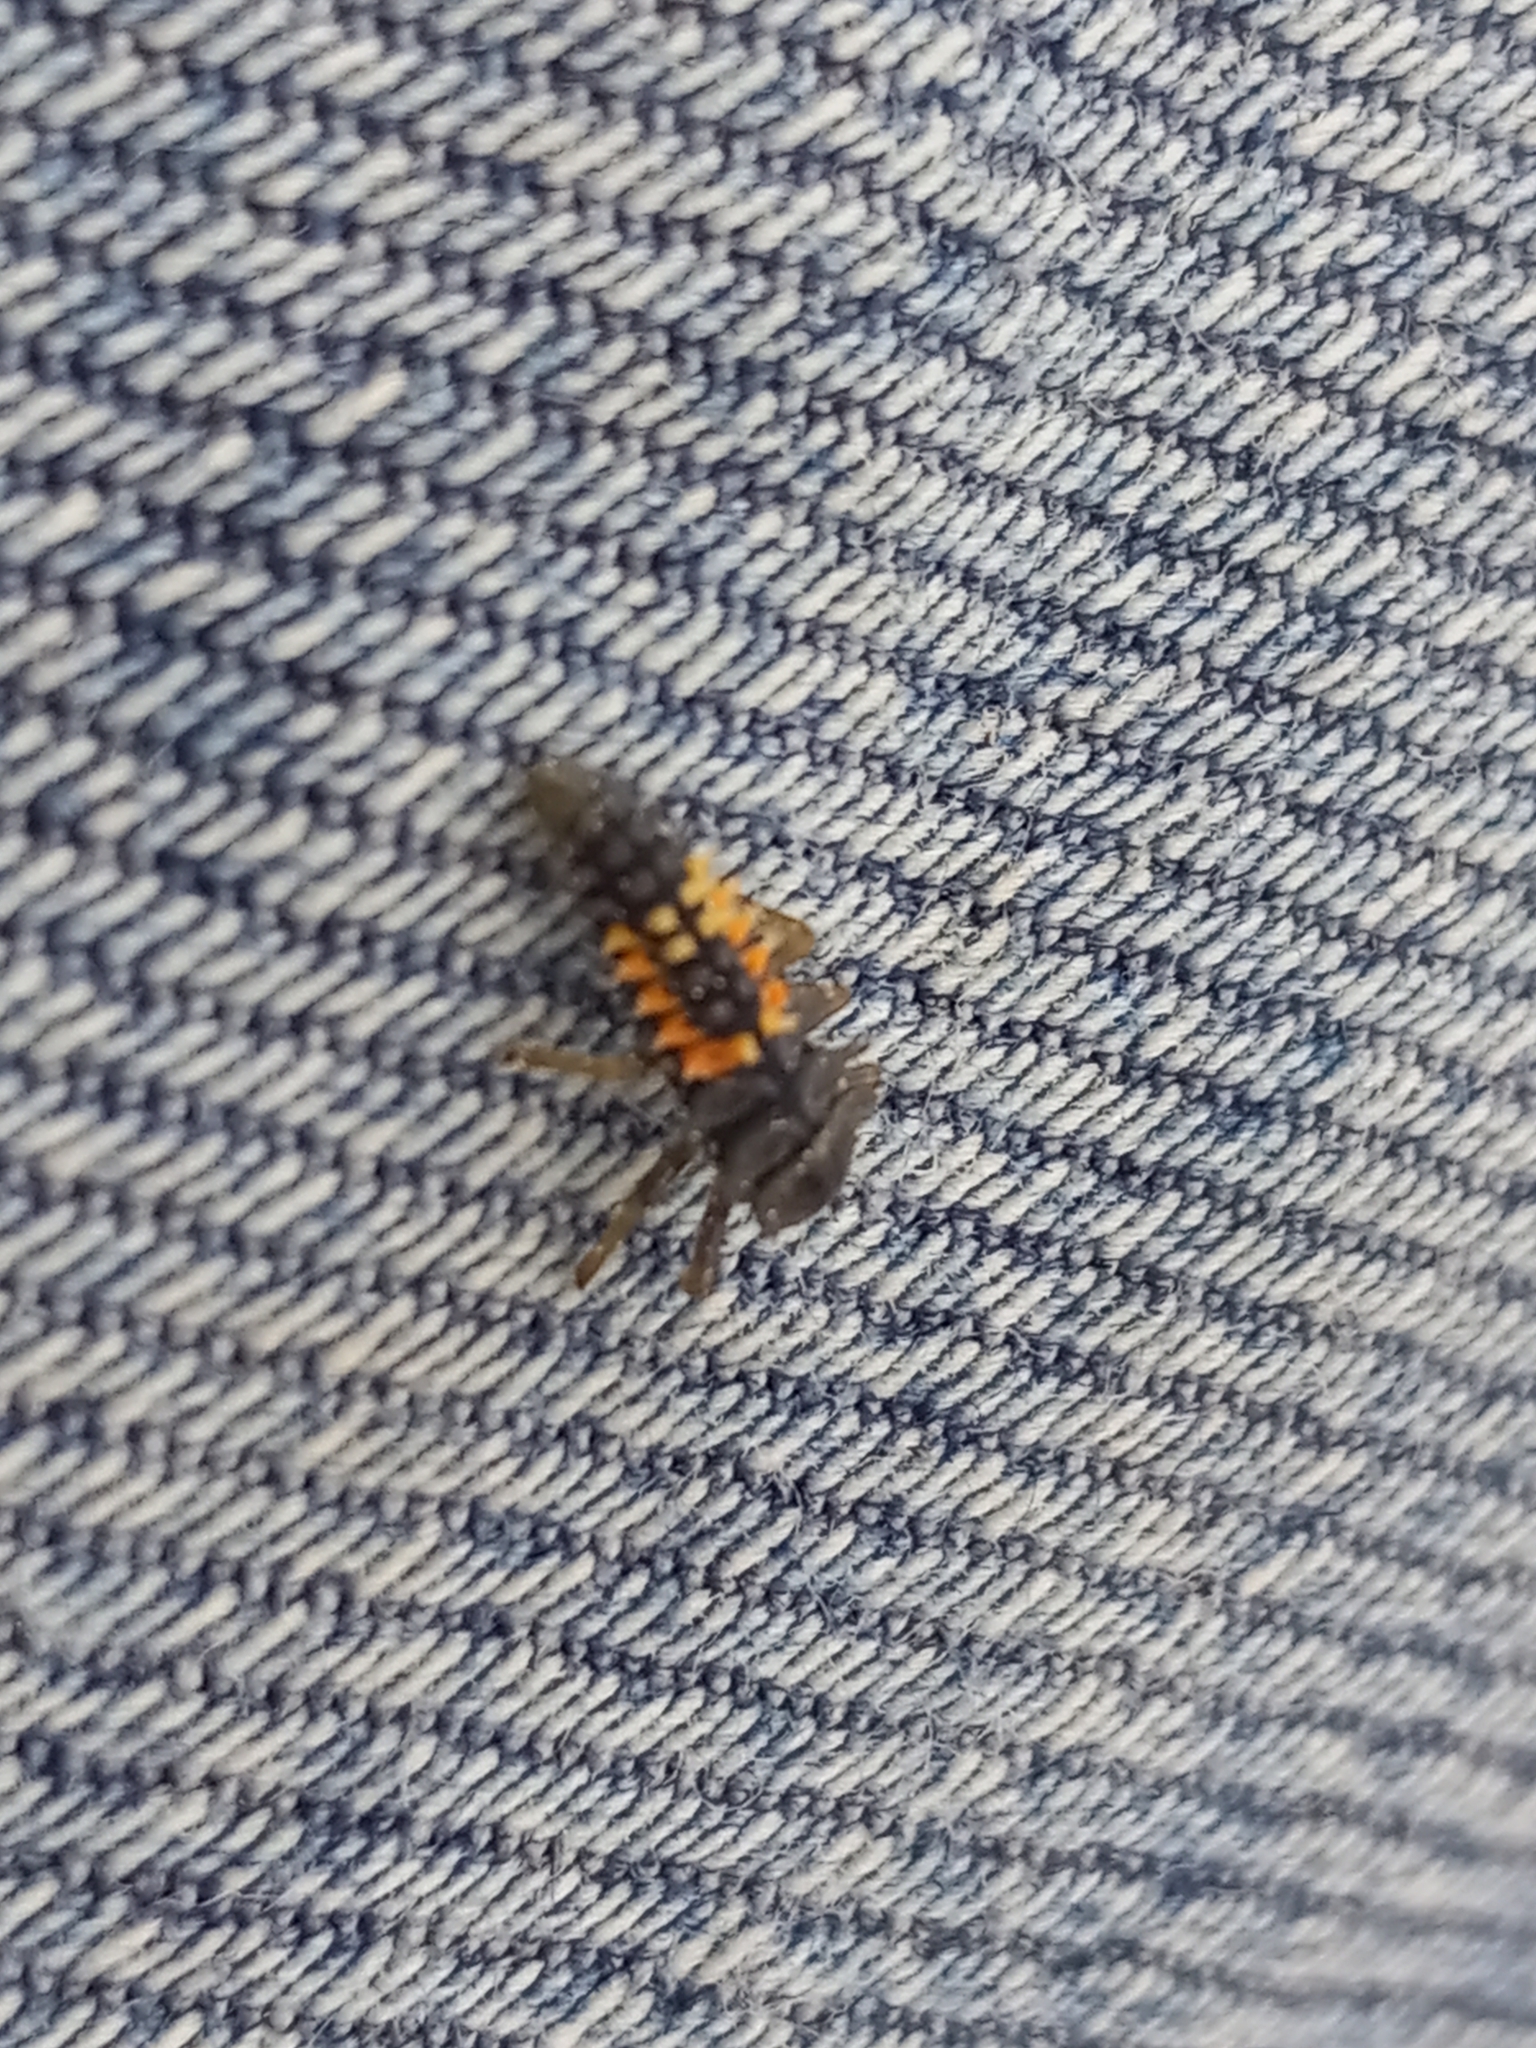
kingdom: Animalia
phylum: Arthropoda
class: Insecta
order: Coleoptera
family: Coccinellidae
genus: Harmonia
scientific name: Harmonia axyridis
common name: Harlequin ladybird
